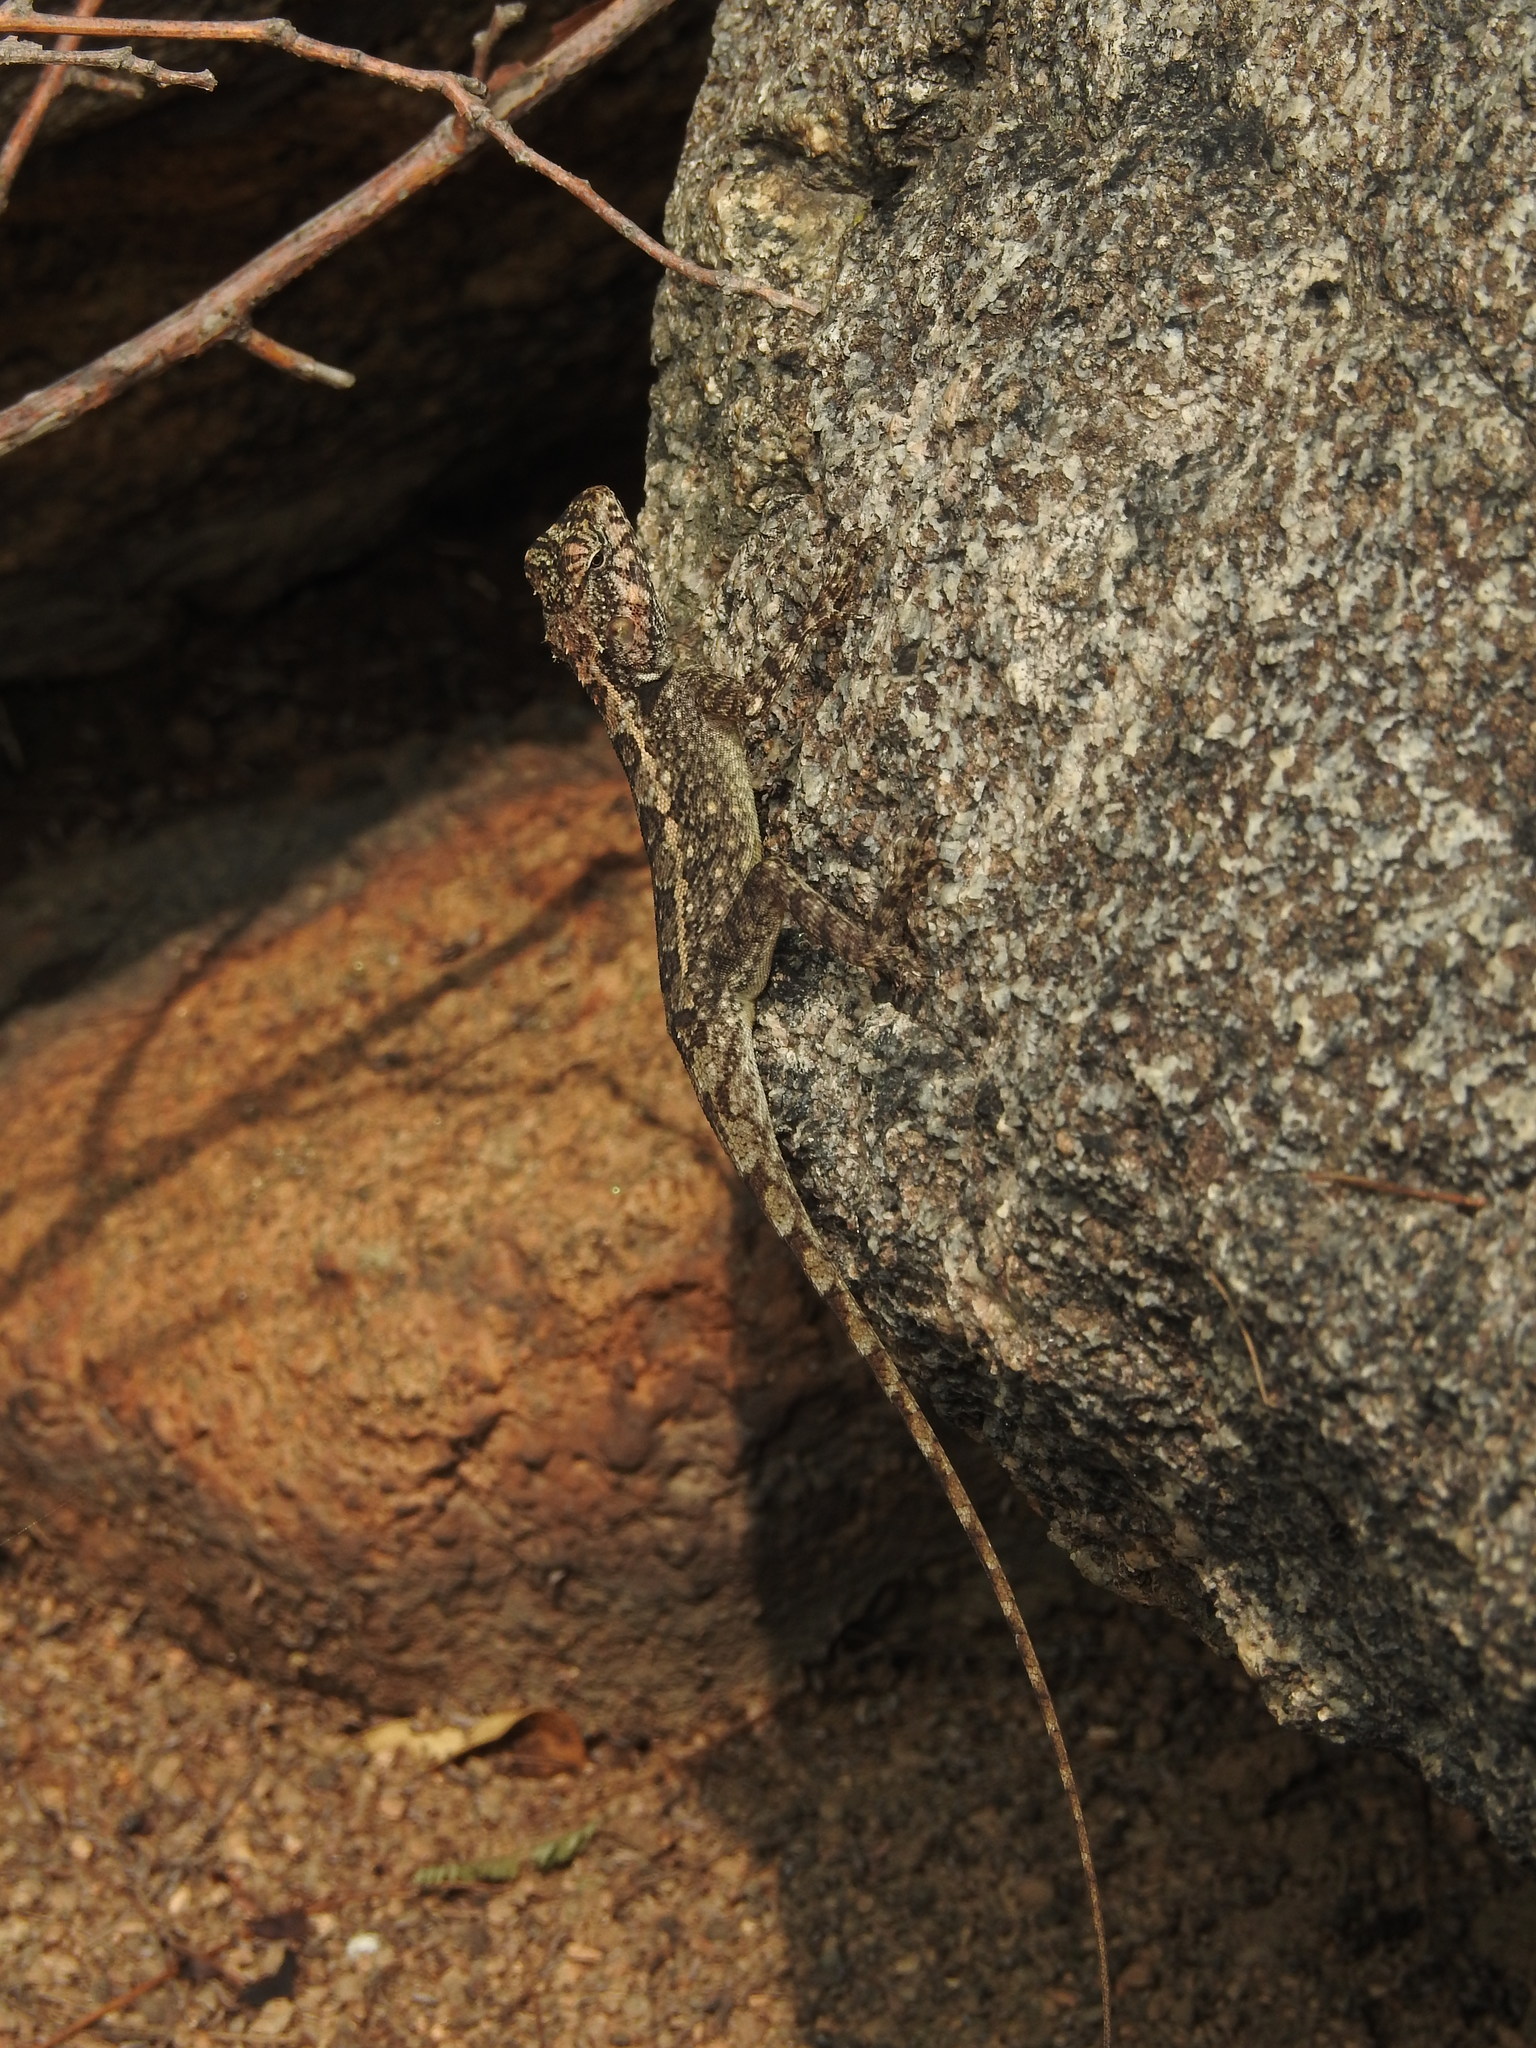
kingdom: Animalia
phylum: Chordata
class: Squamata
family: Agamidae
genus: Calotes
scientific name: Calotes versicolor
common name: Oriental garden lizard
